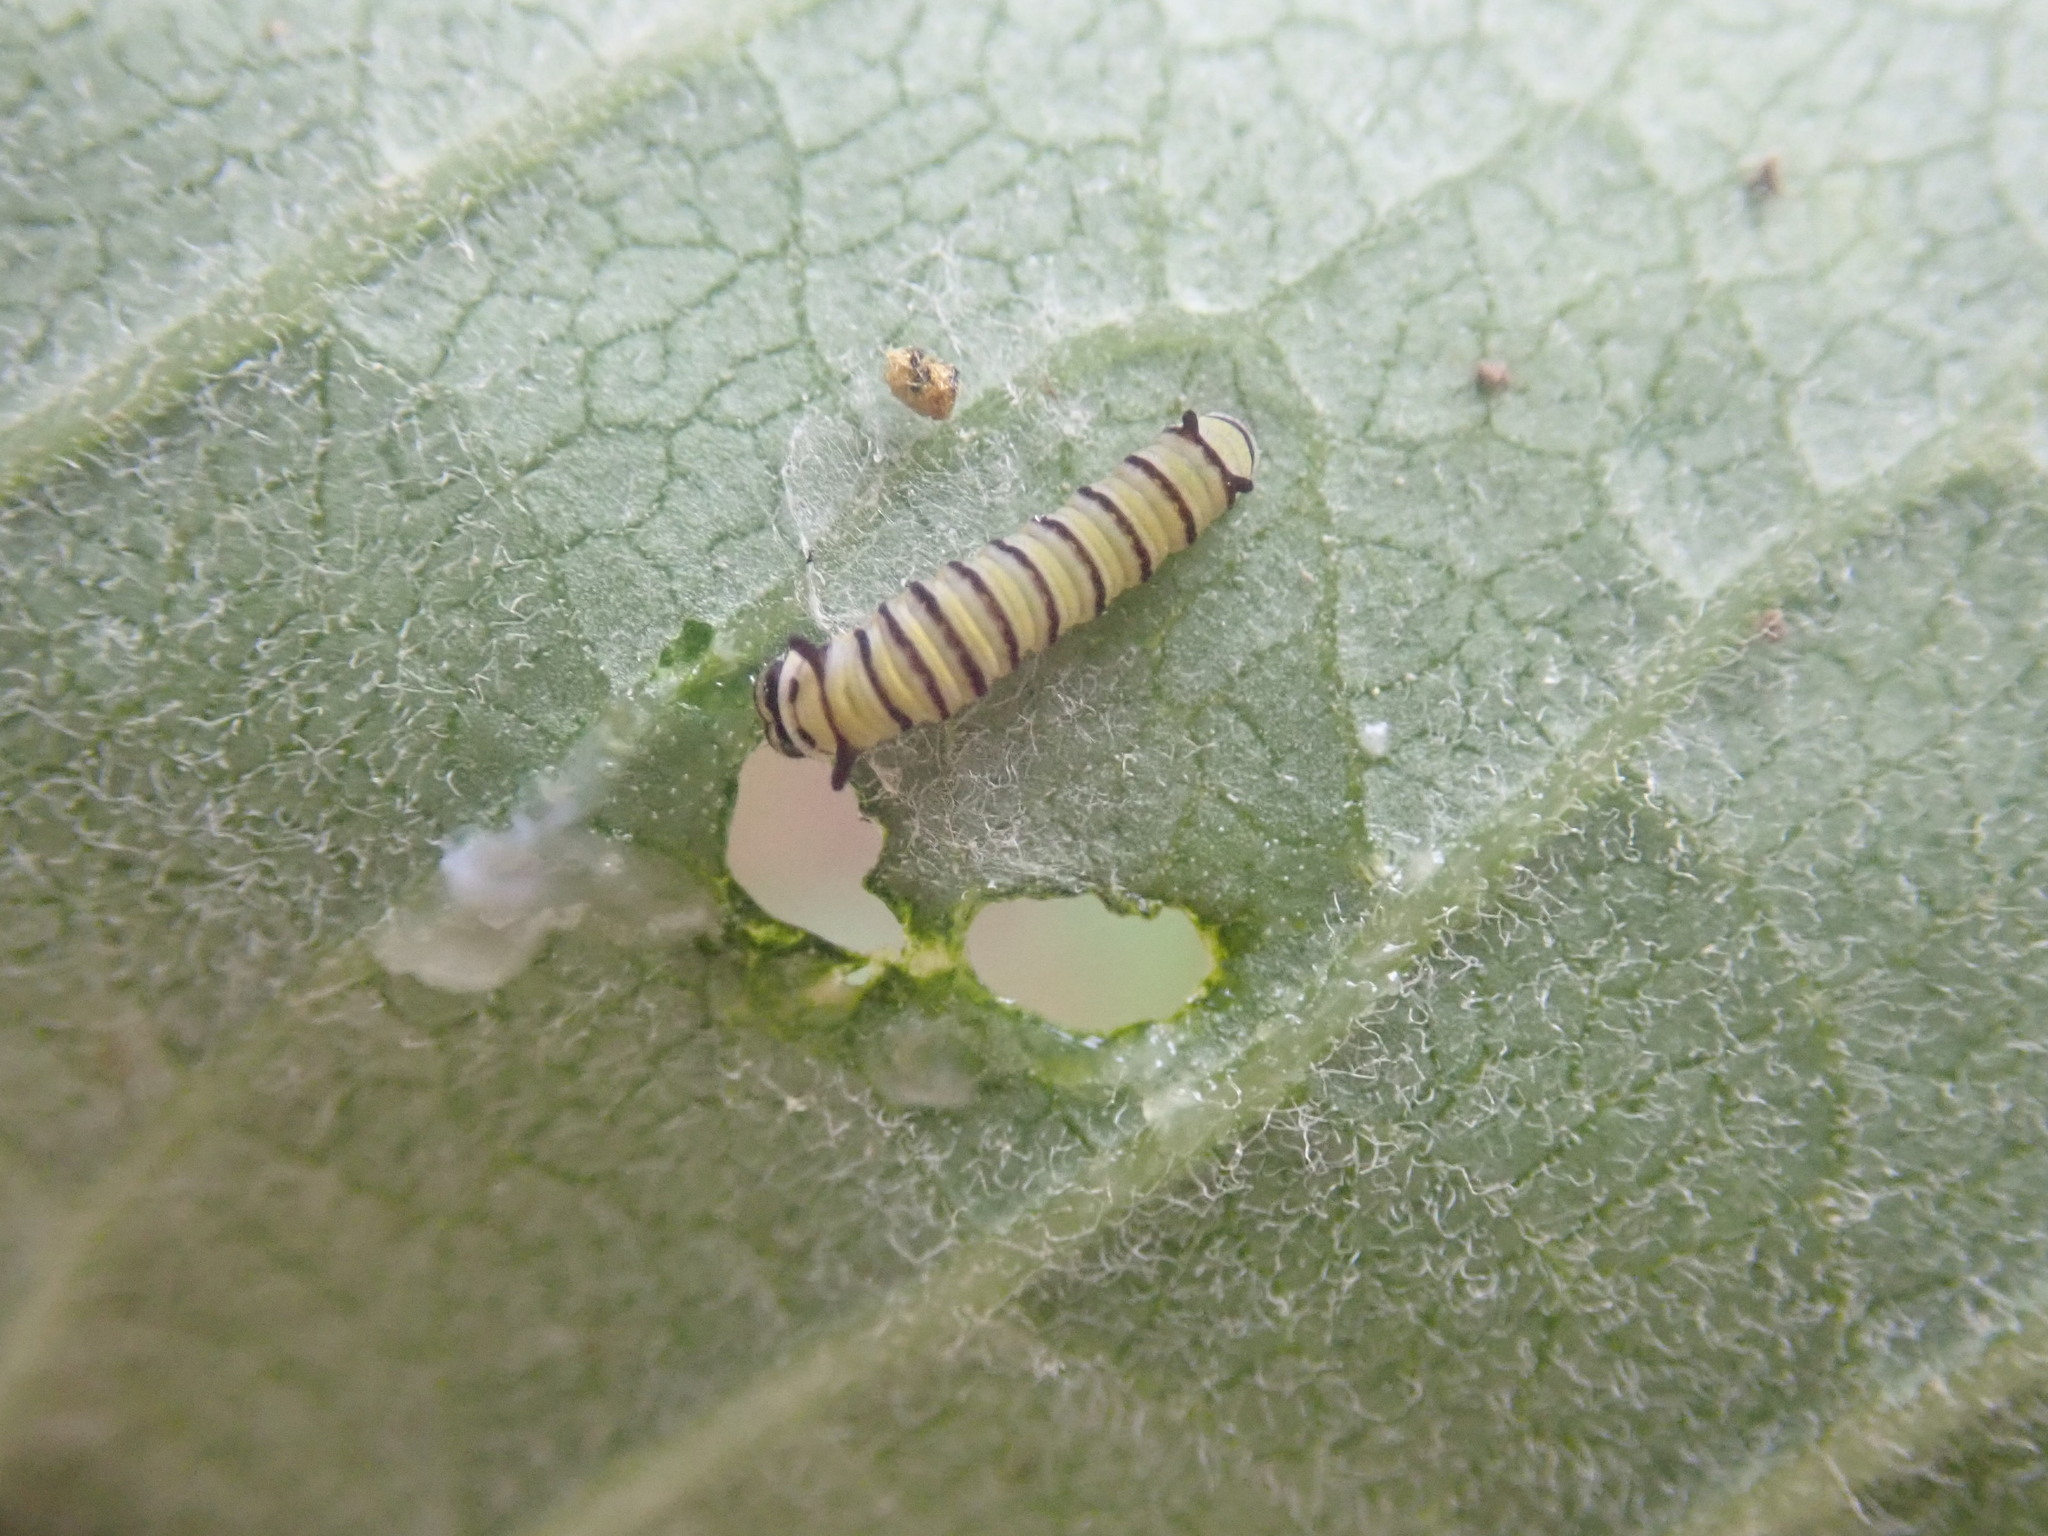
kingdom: Animalia
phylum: Arthropoda
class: Insecta
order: Lepidoptera
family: Nymphalidae
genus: Danaus
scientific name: Danaus plexippus
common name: Monarch
